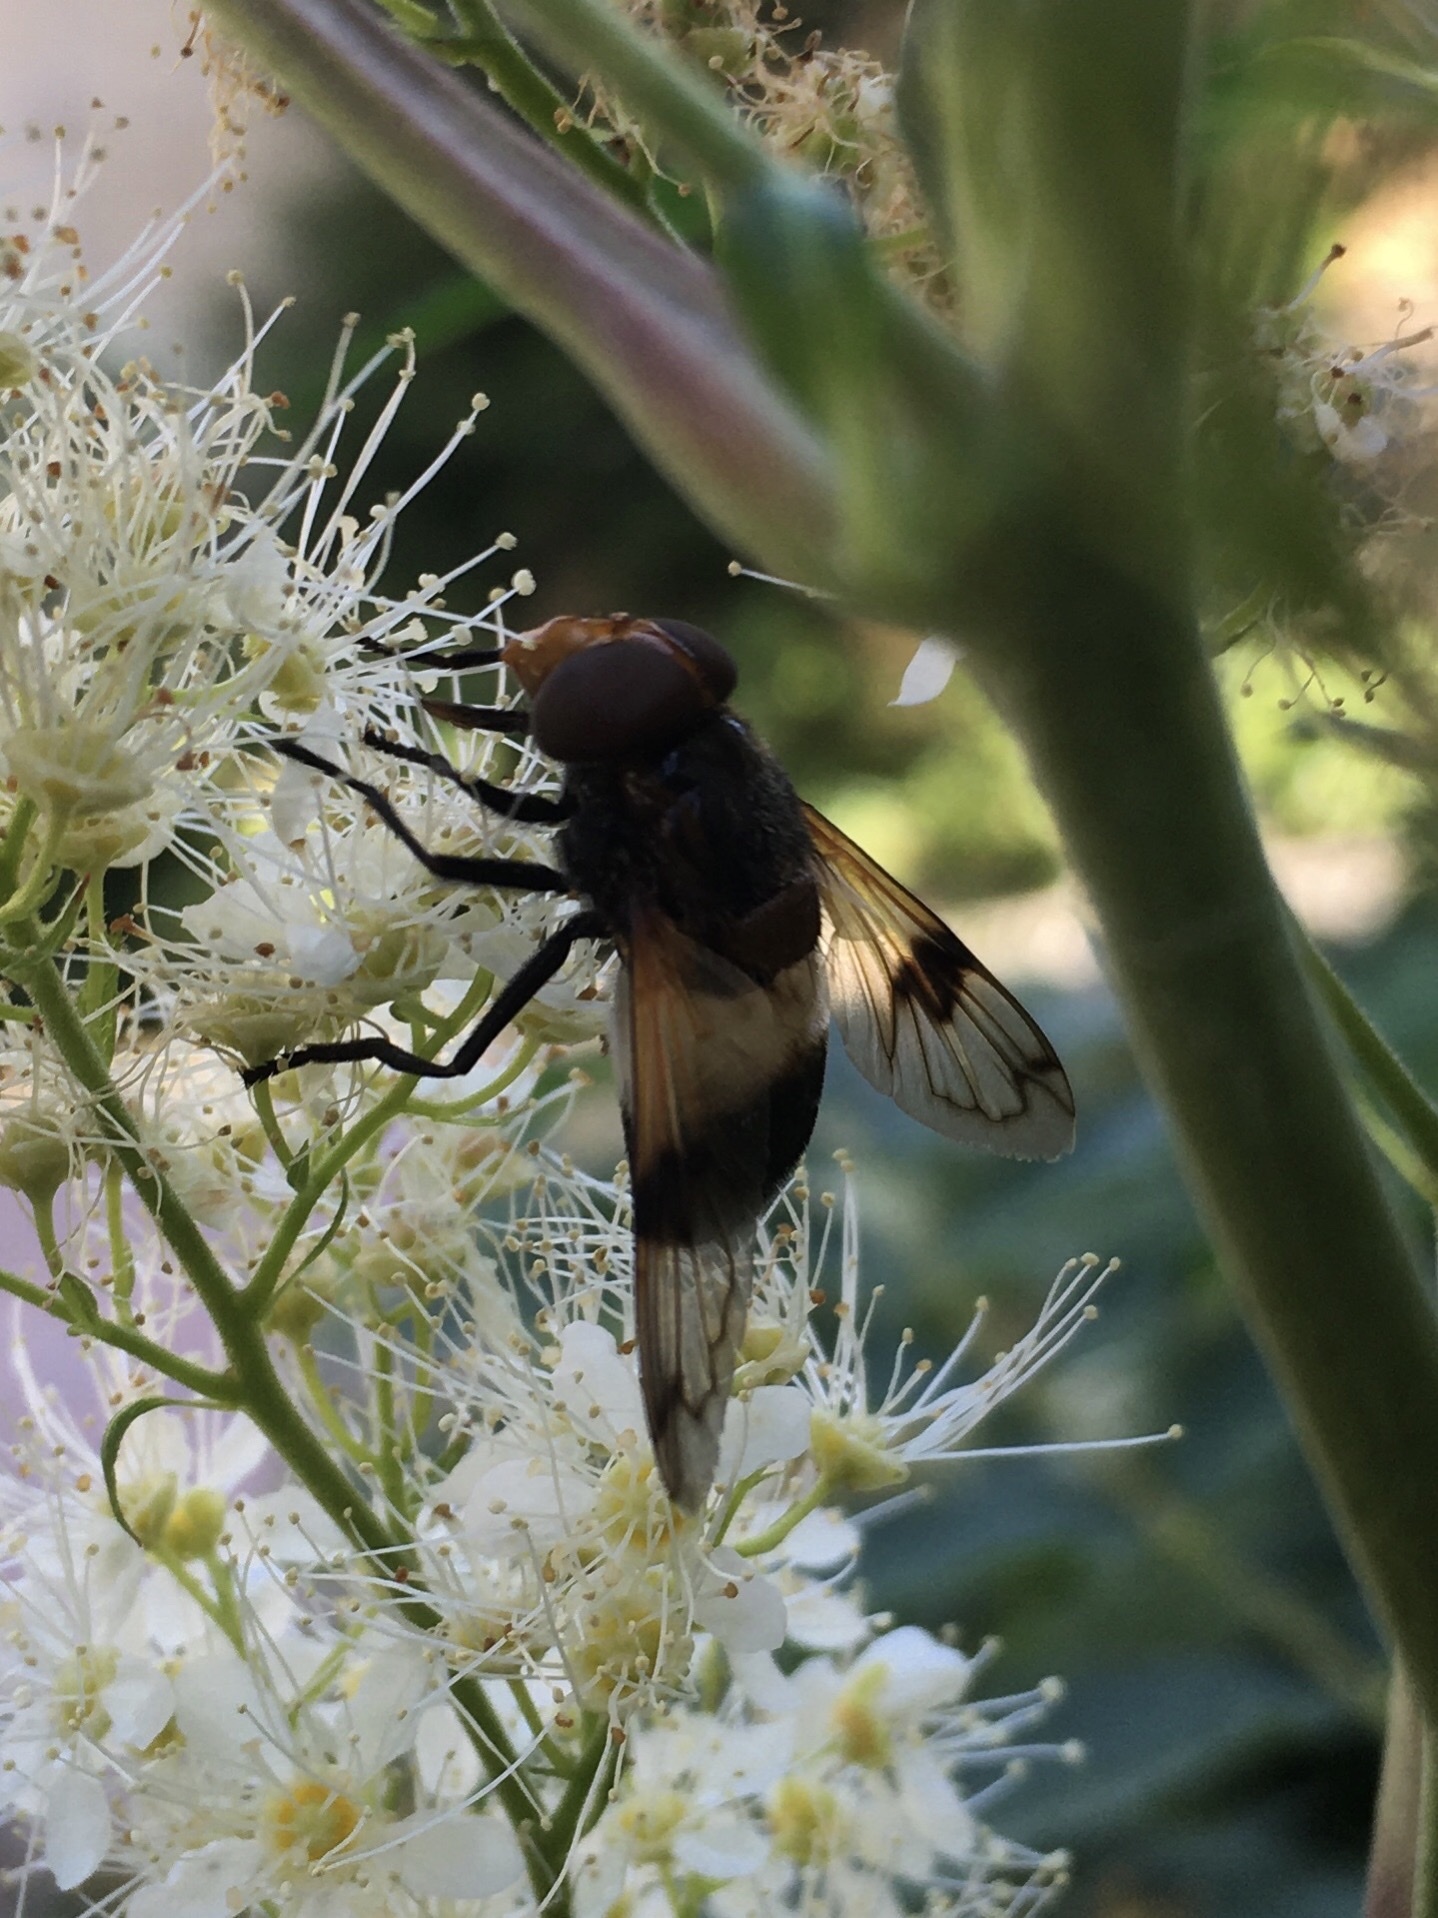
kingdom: Animalia
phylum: Arthropoda
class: Insecta
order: Diptera
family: Syrphidae
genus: Volucella
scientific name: Volucella pellucens
